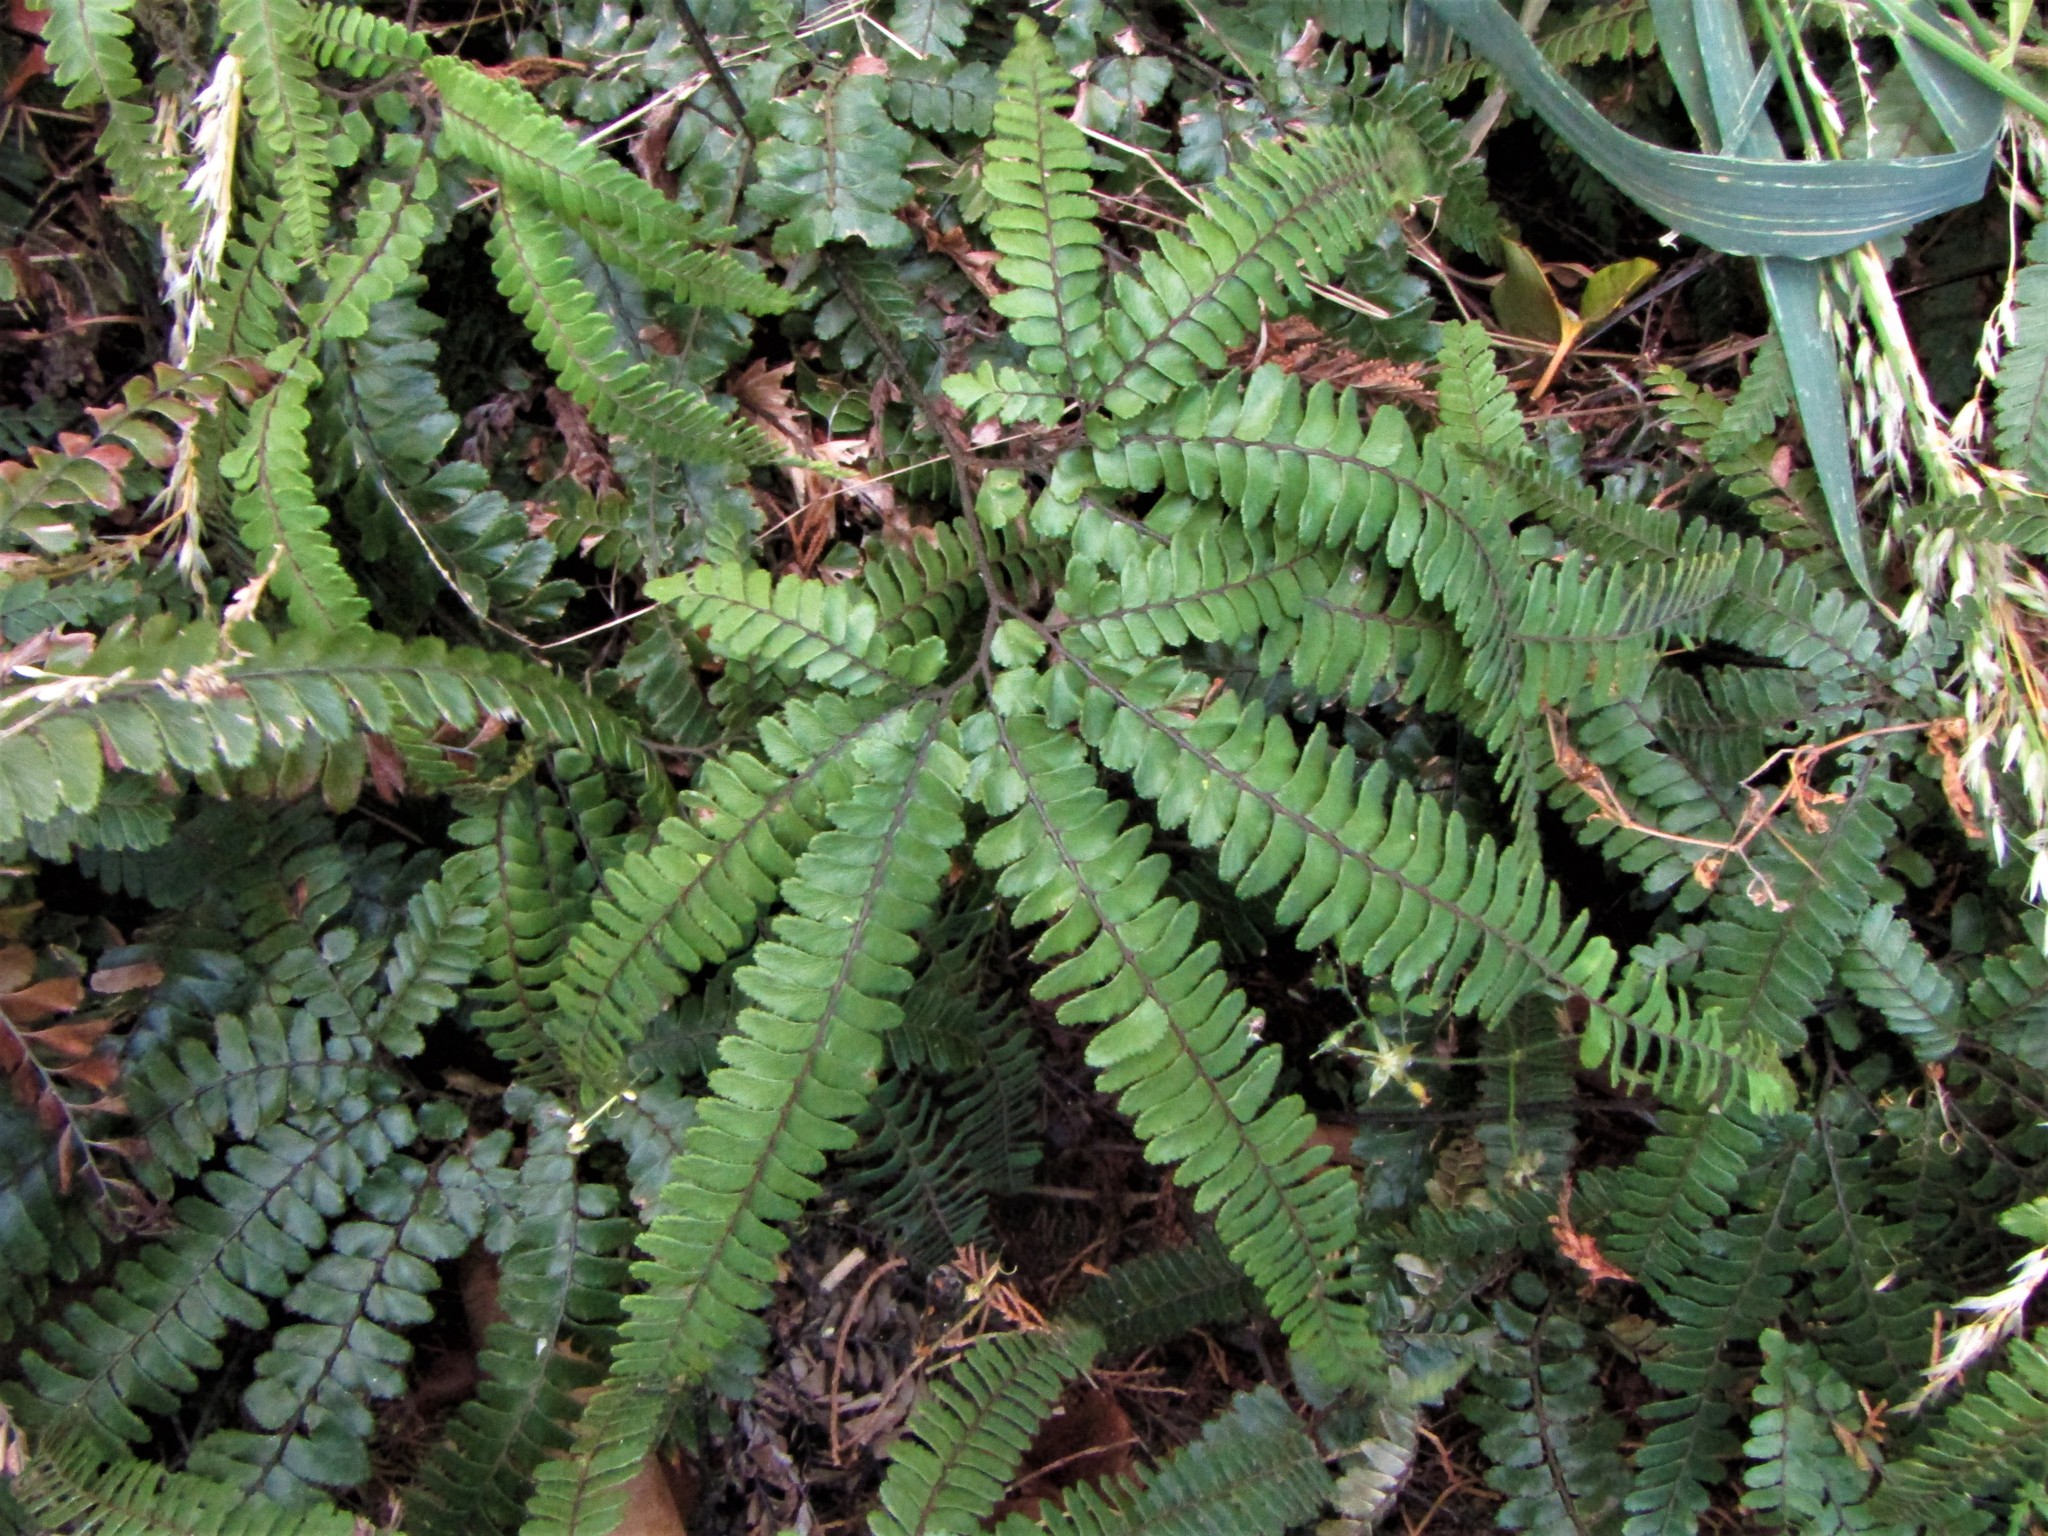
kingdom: Plantae
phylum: Tracheophyta
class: Polypodiopsida
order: Polypodiales
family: Pteridaceae
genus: Adiantum
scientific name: Adiantum hispidulum
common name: Rough maidenhair
